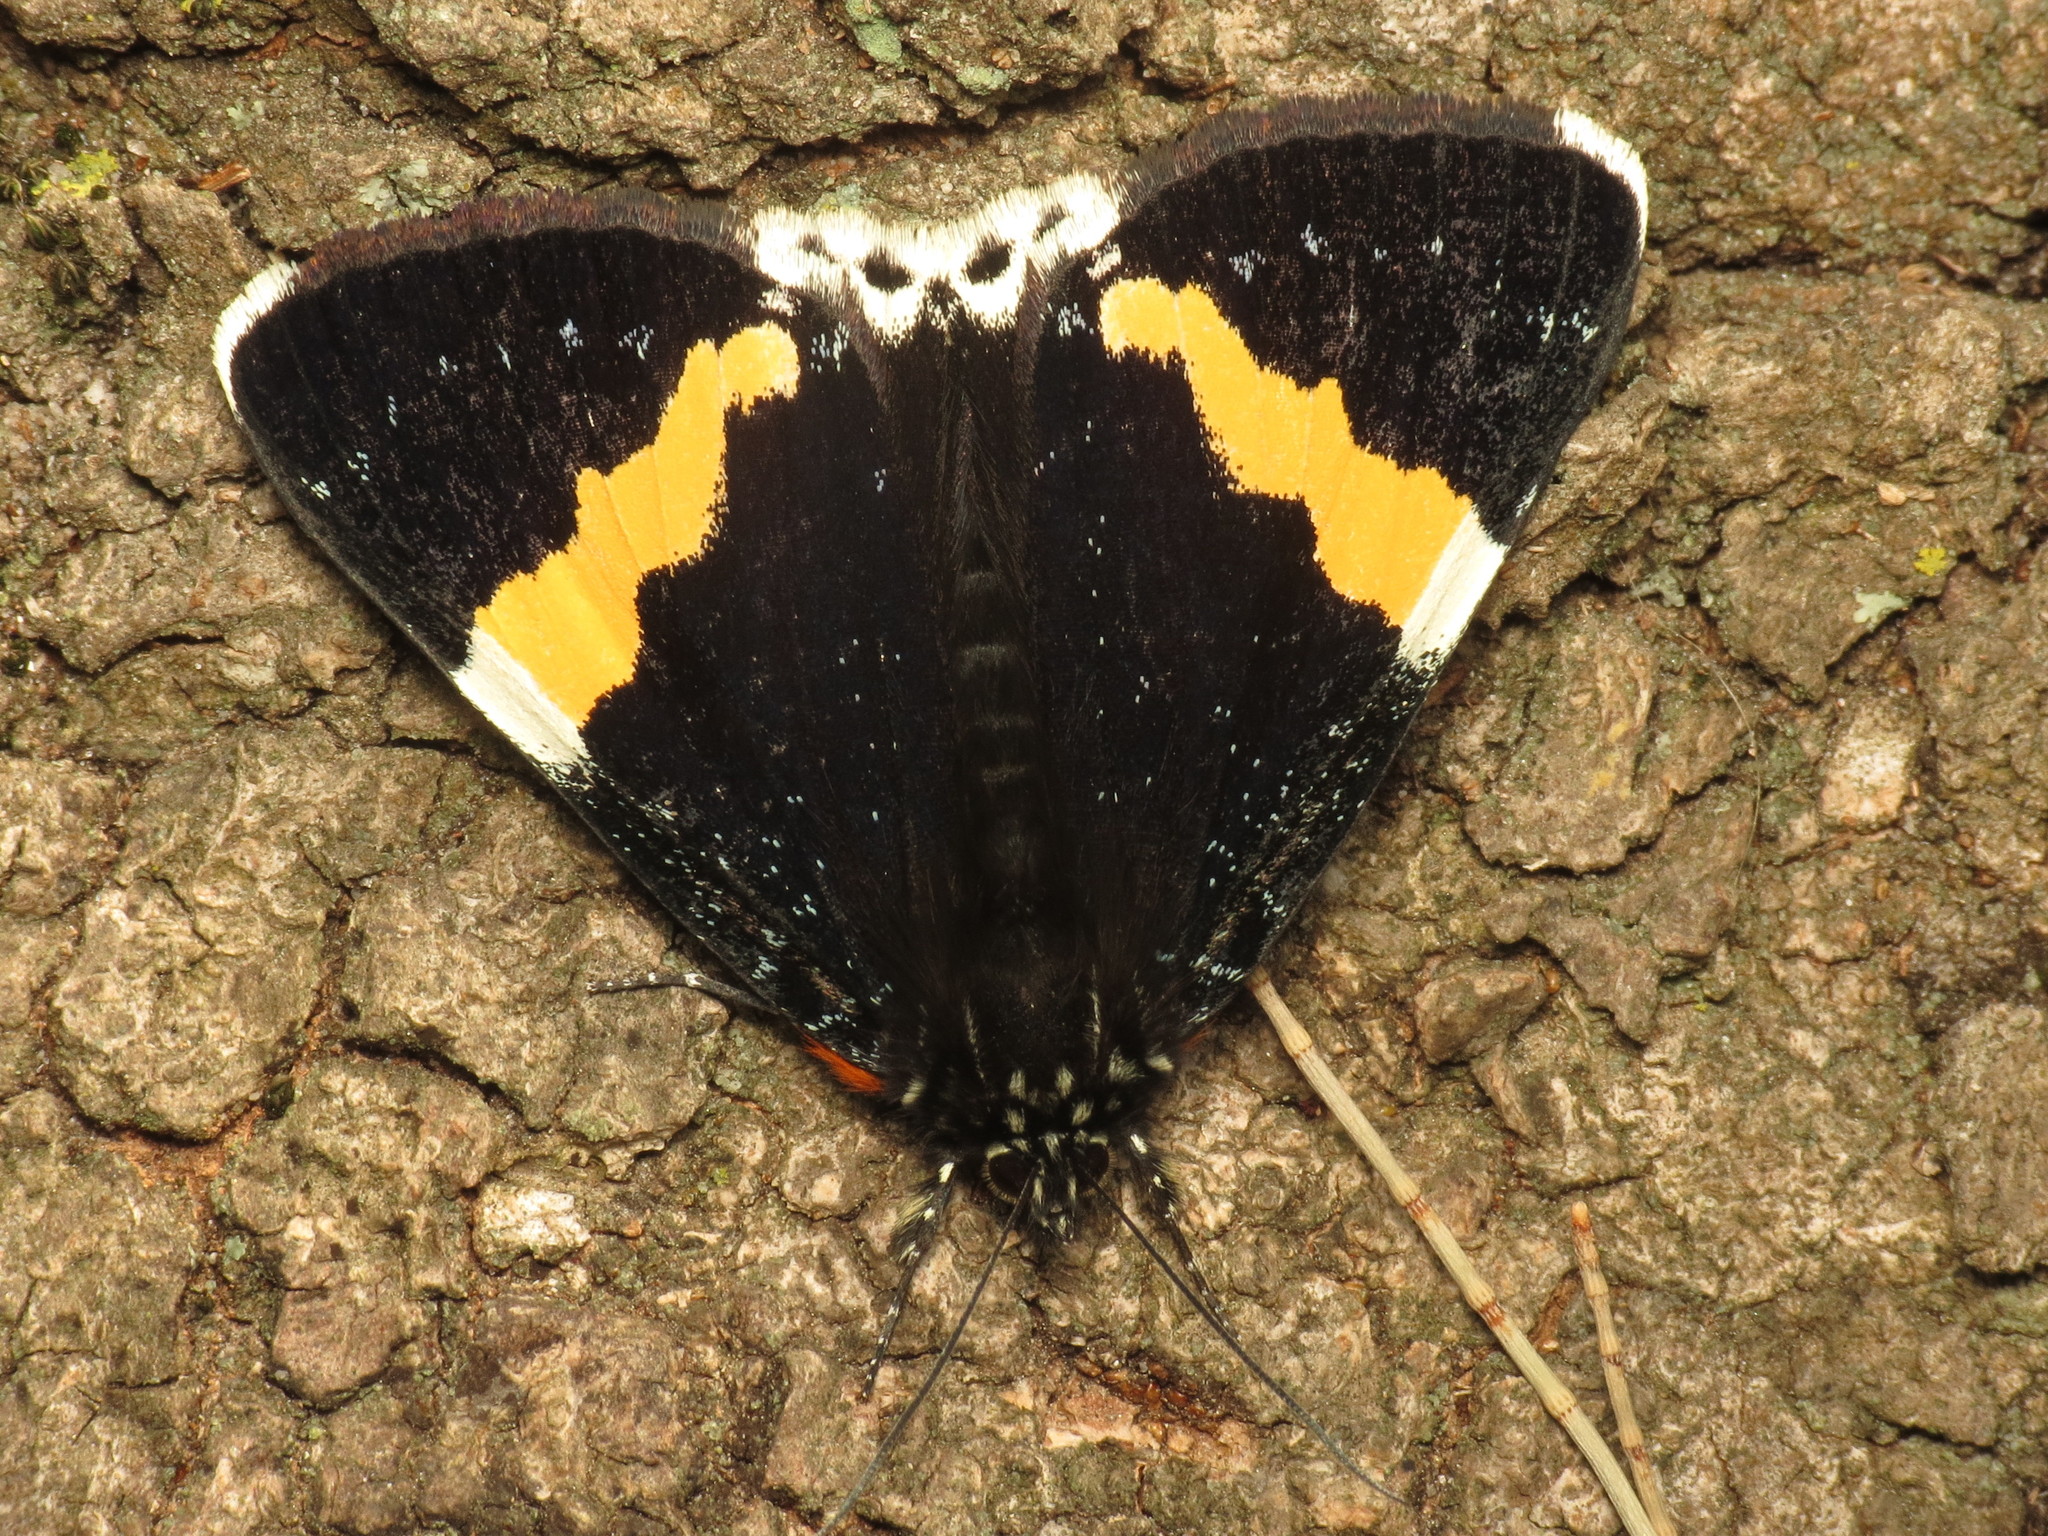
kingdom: Animalia
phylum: Arthropoda
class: Insecta
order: Lepidoptera
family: Noctuidae
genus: Eutrichopidia
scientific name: Eutrichopidia latinus
